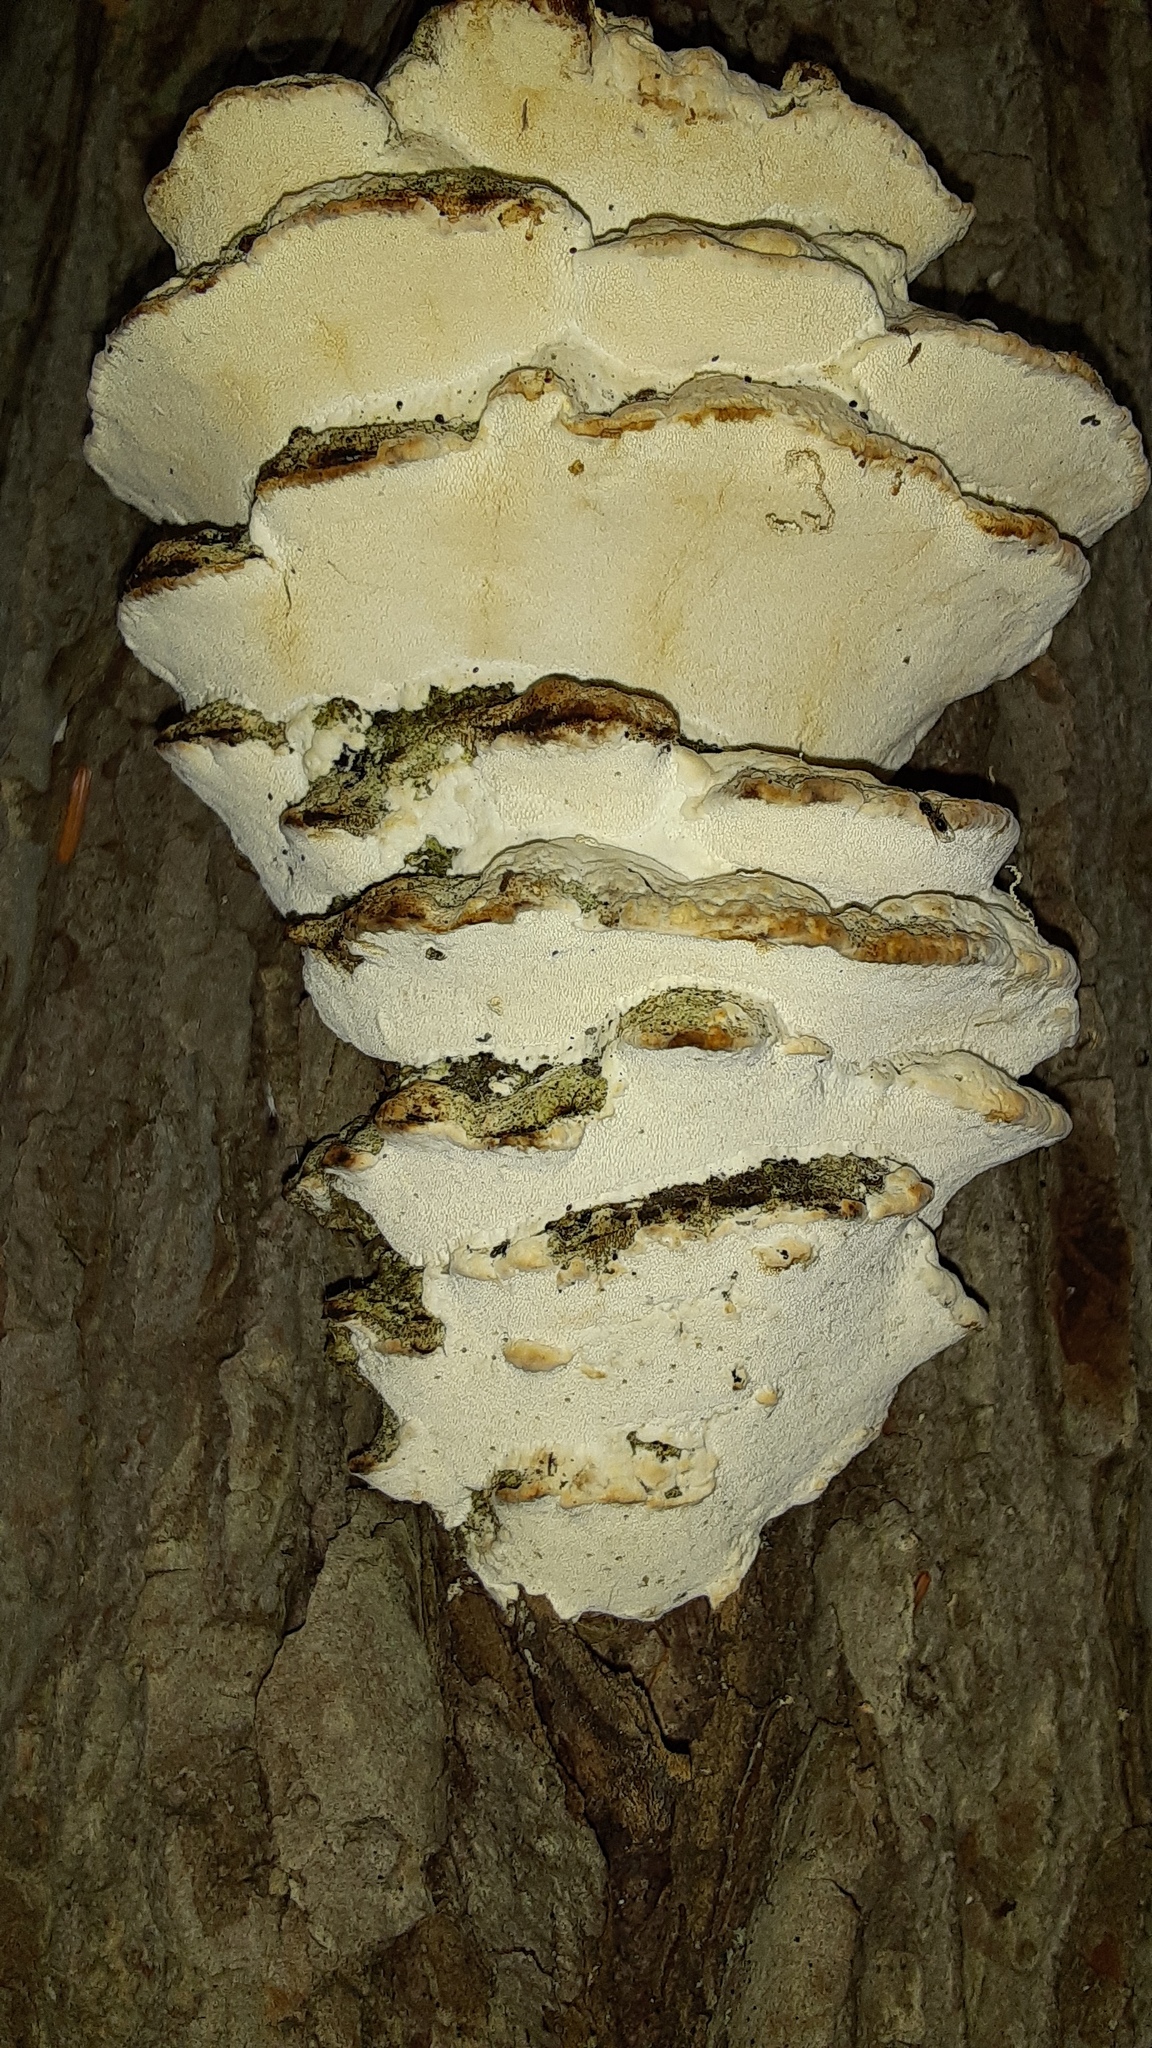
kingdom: Fungi
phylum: Basidiomycota
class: Agaricomycetes
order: Hymenochaetales
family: Oxyporaceae
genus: Oxyporus
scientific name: Oxyporus populinus
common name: Poplar bracket
